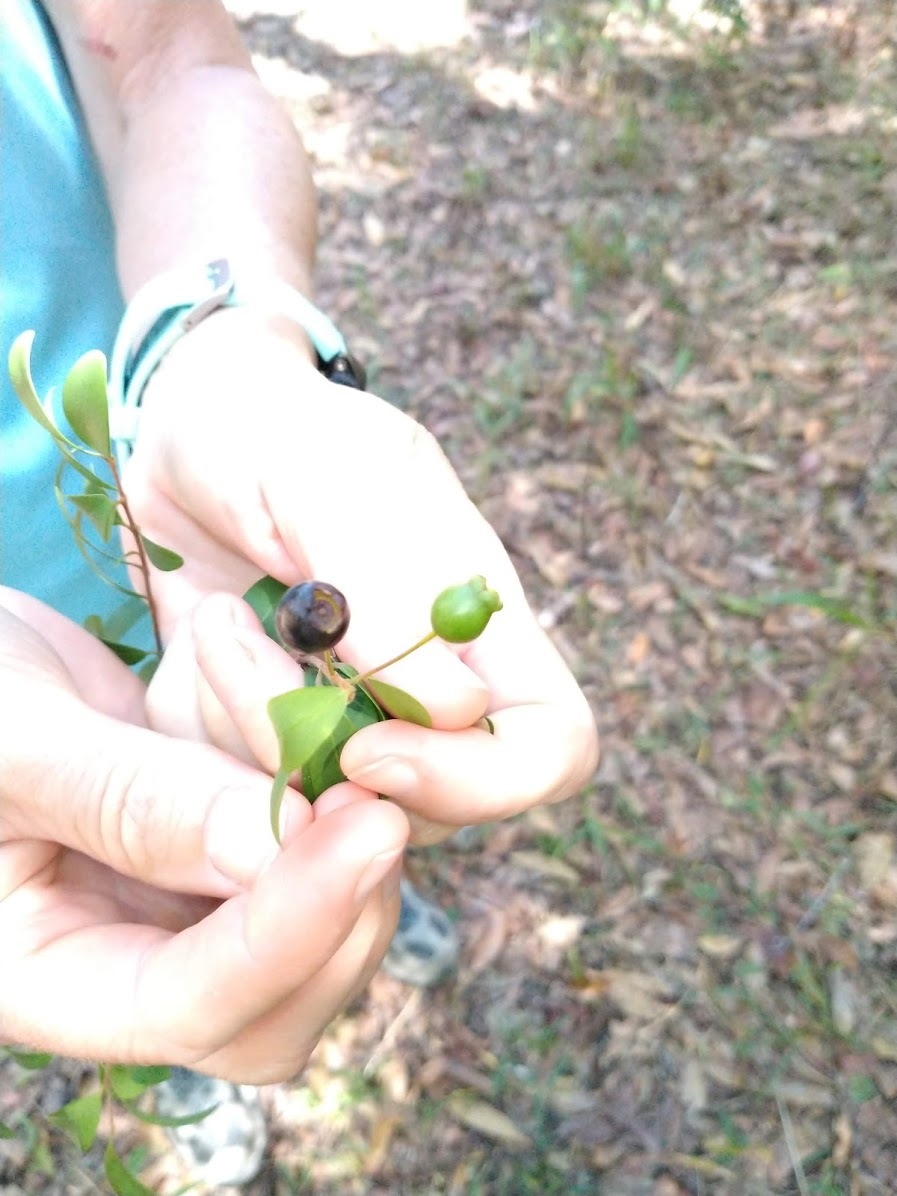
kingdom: Plantae
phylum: Tracheophyta
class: Magnoliopsida
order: Myrtales
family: Myrtaceae
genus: Pilidiostigma
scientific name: Pilidiostigma rhytisperma
